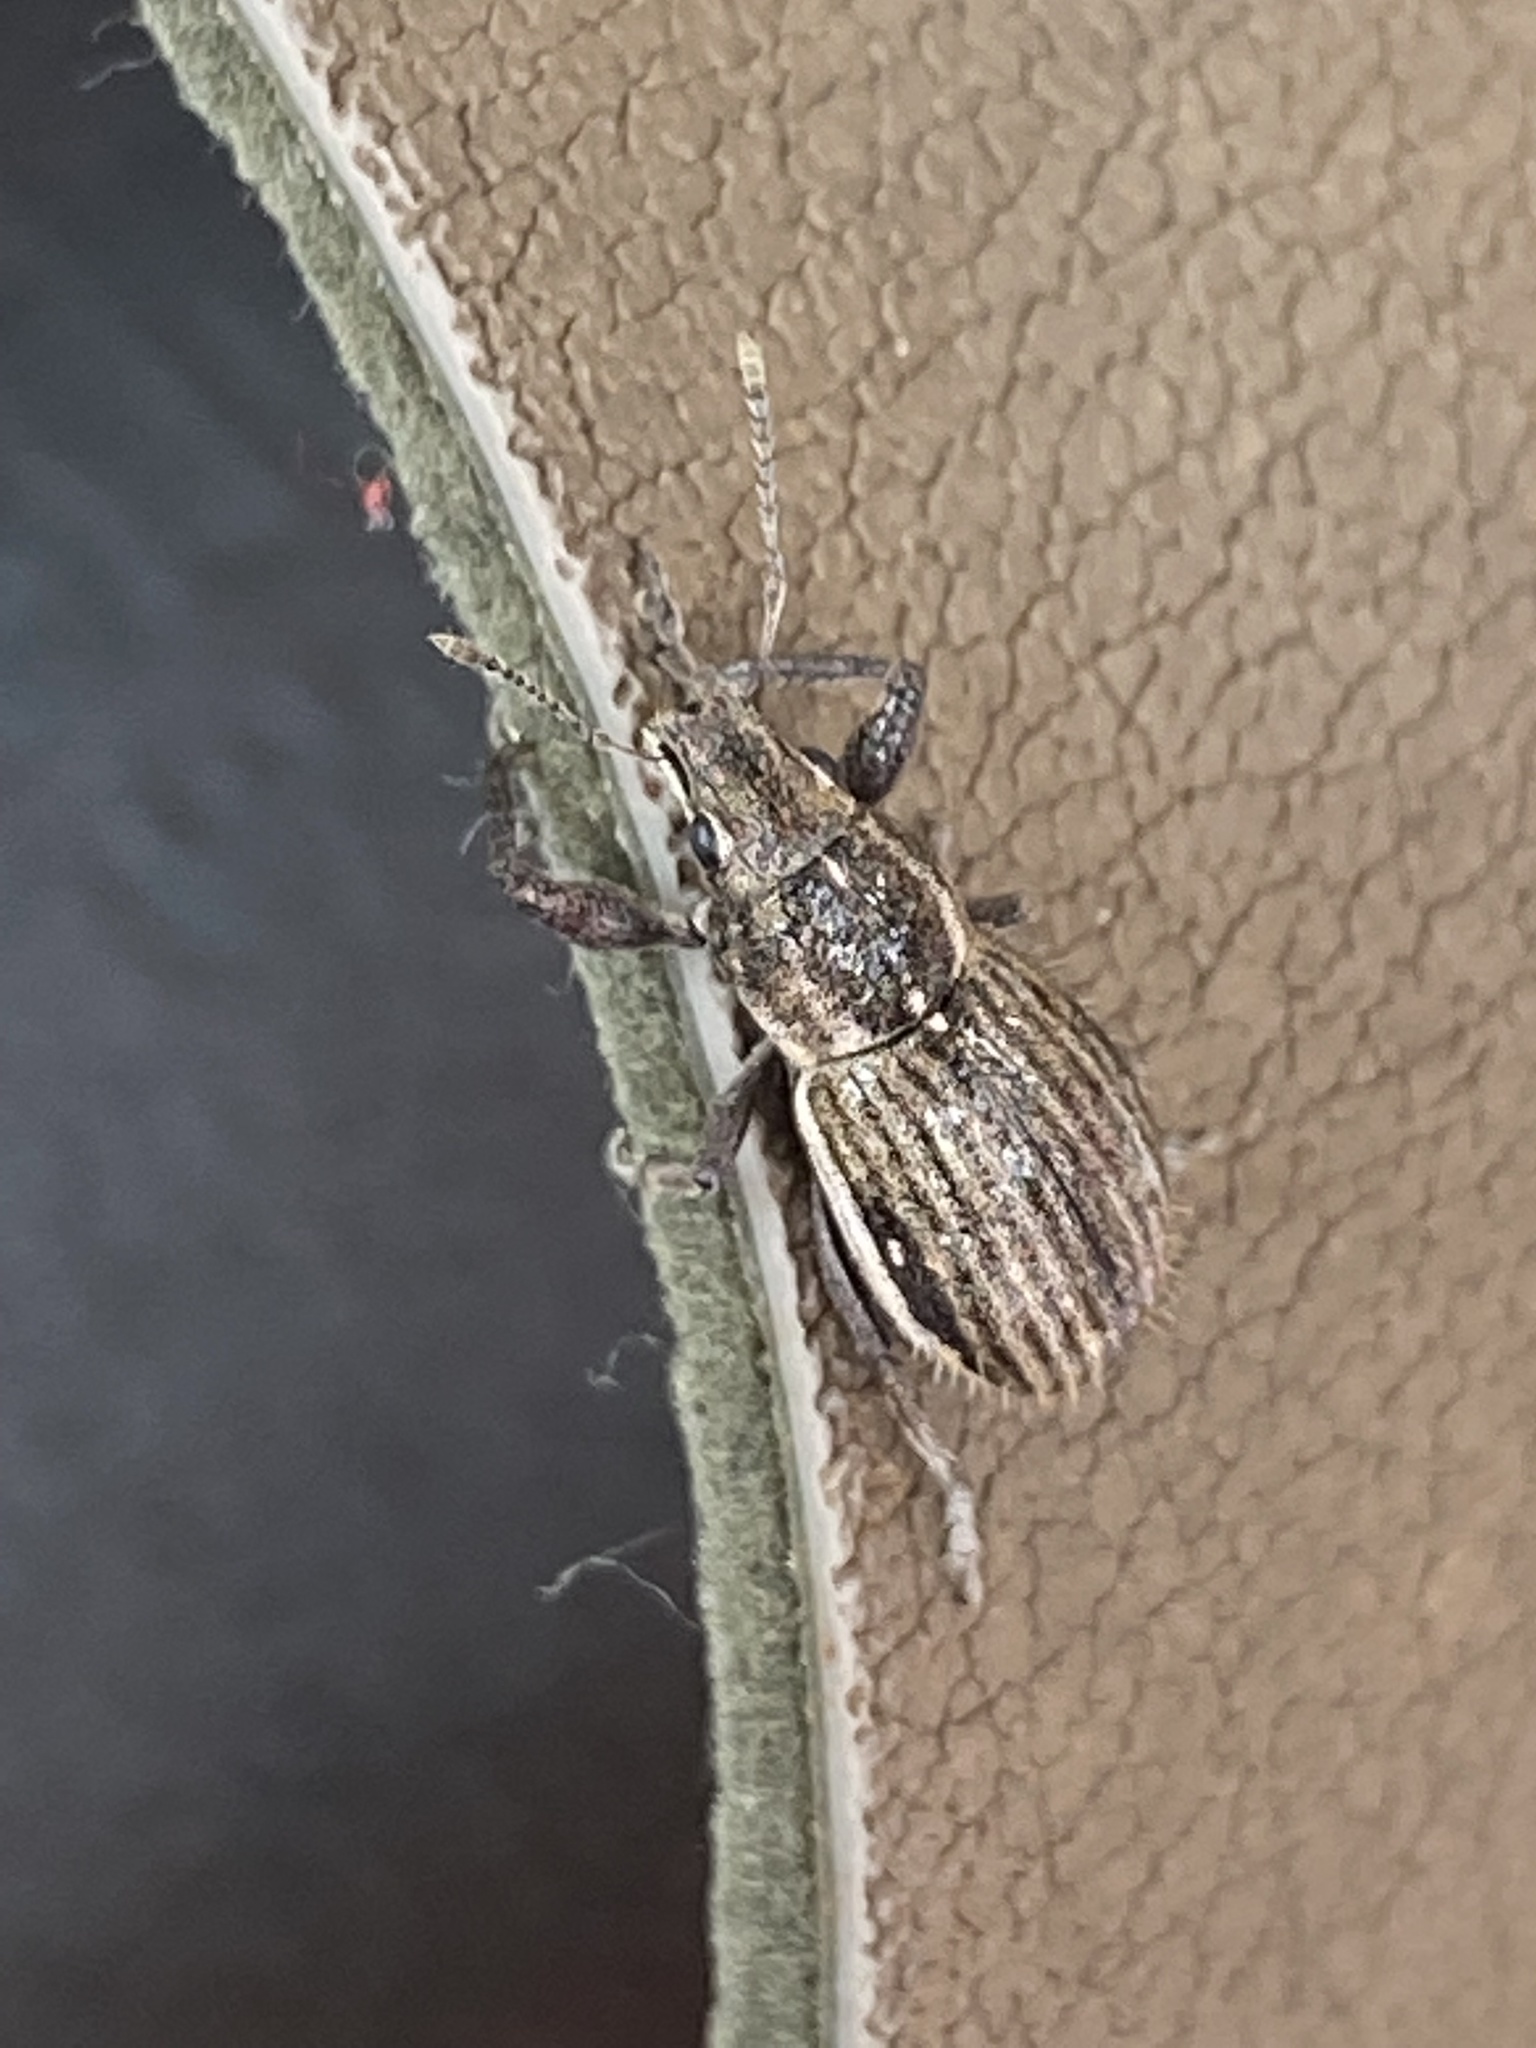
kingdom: Animalia
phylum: Arthropoda
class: Insecta
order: Coleoptera
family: Curculionidae
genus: Naupactus
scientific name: Naupactus leucoloma
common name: Whitefringed beetle
